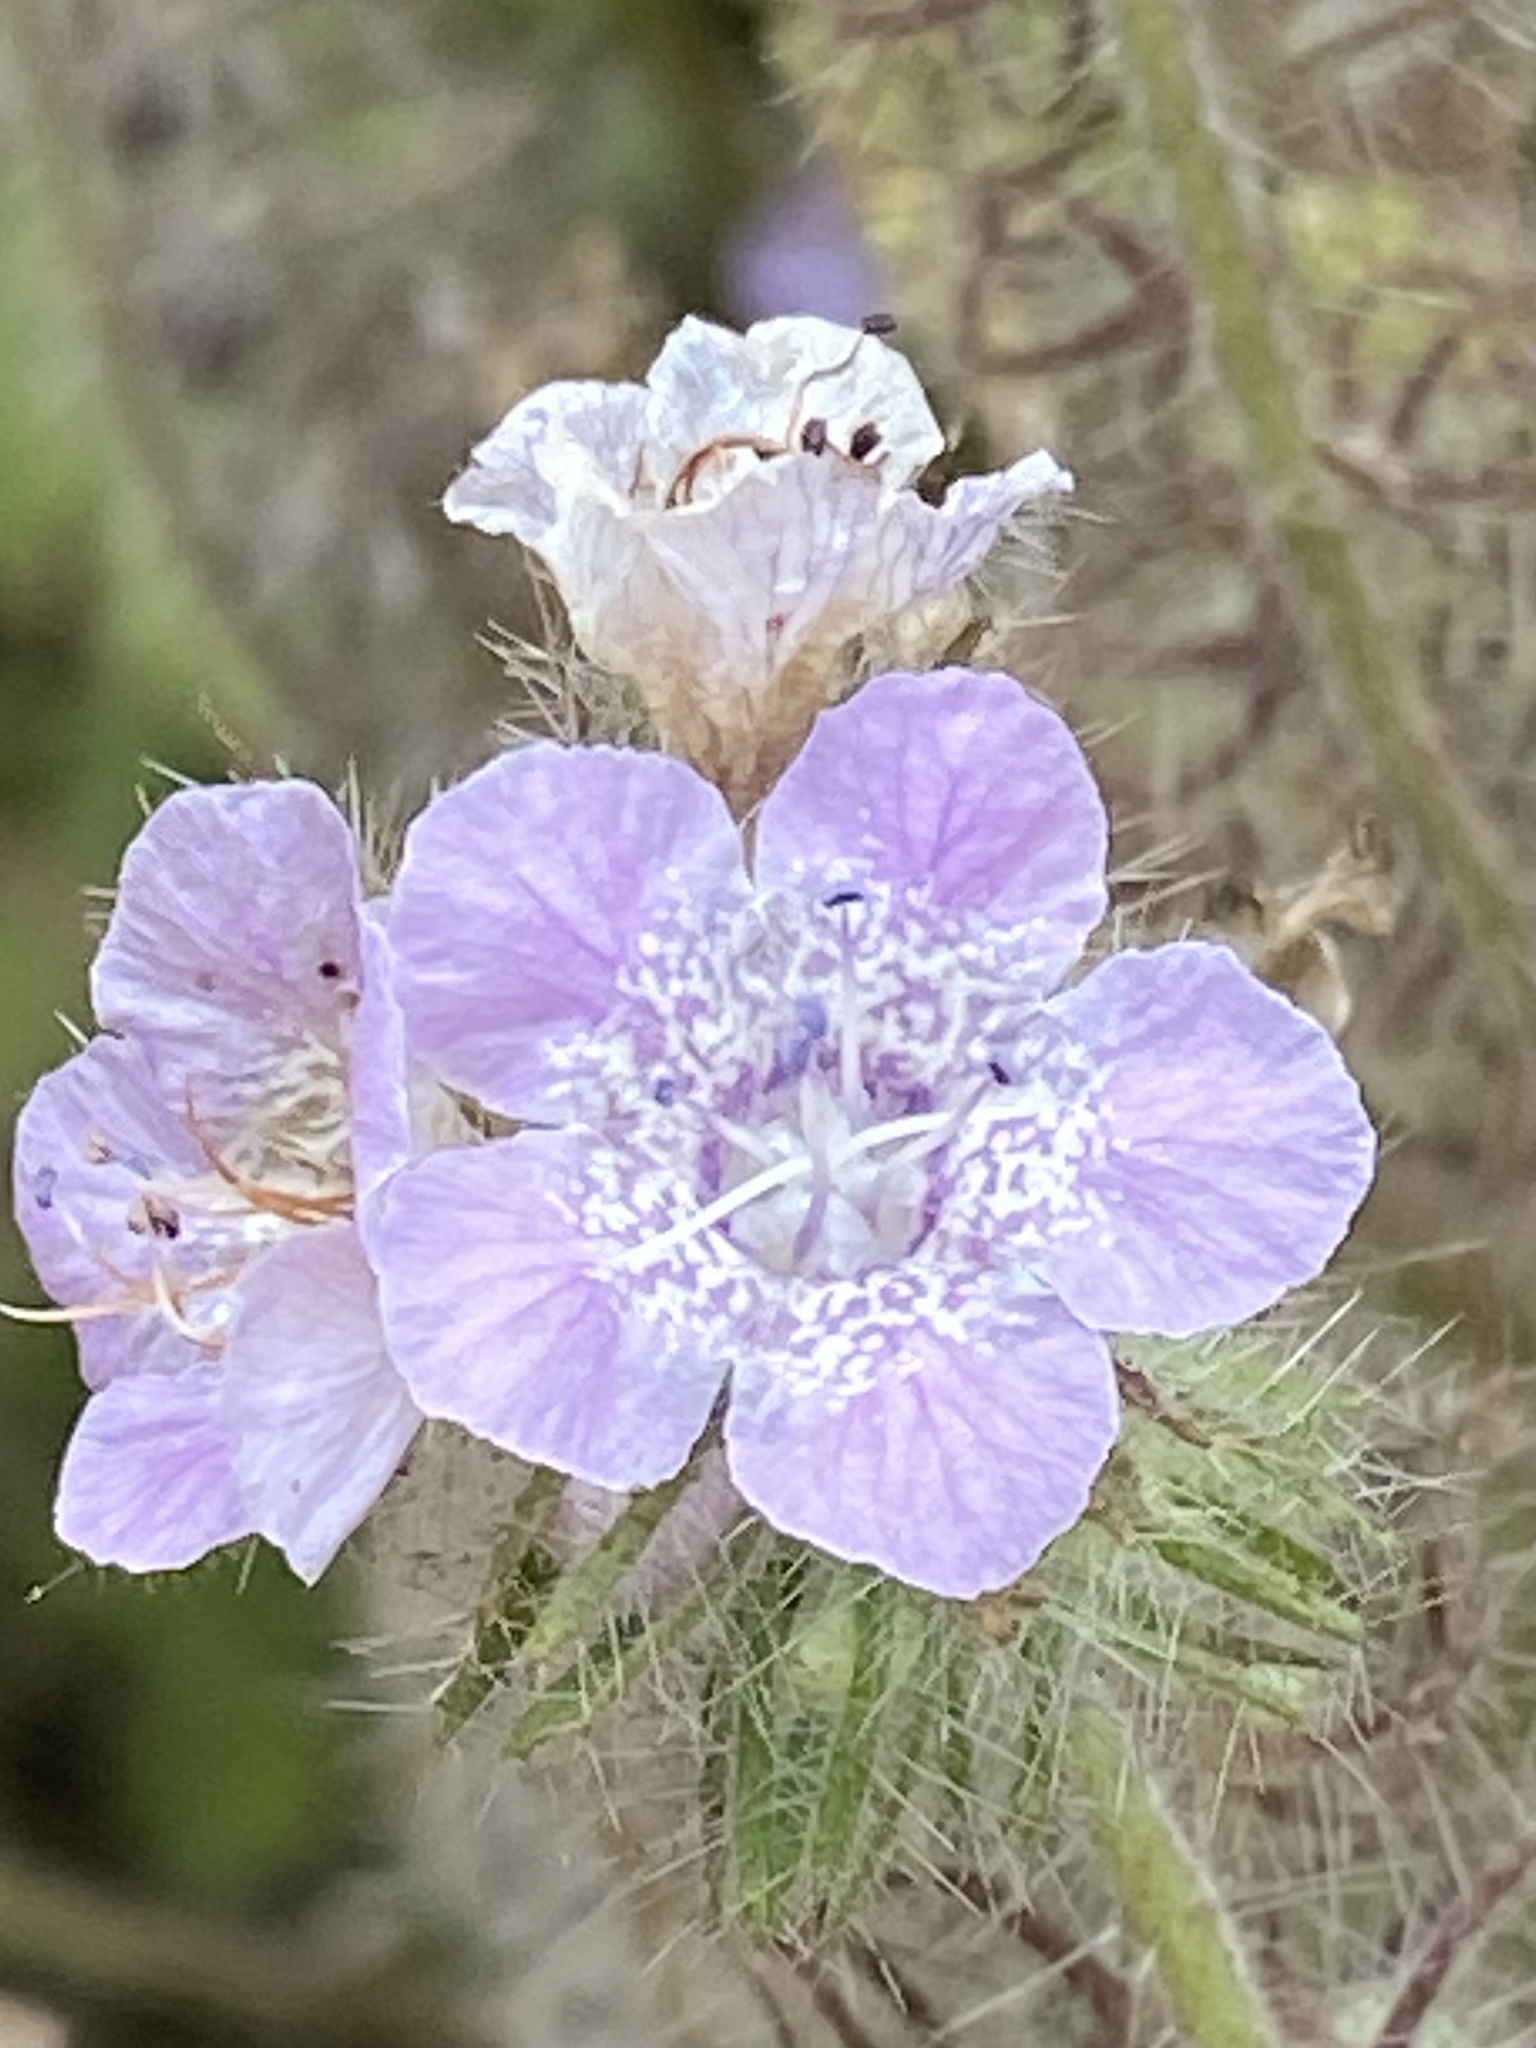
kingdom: Plantae
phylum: Tracheophyta
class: Magnoliopsida
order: Boraginales
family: Hydrophyllaceae
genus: Phacelia
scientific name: Phacelia cicutaria
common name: Caterpillar phacelia
